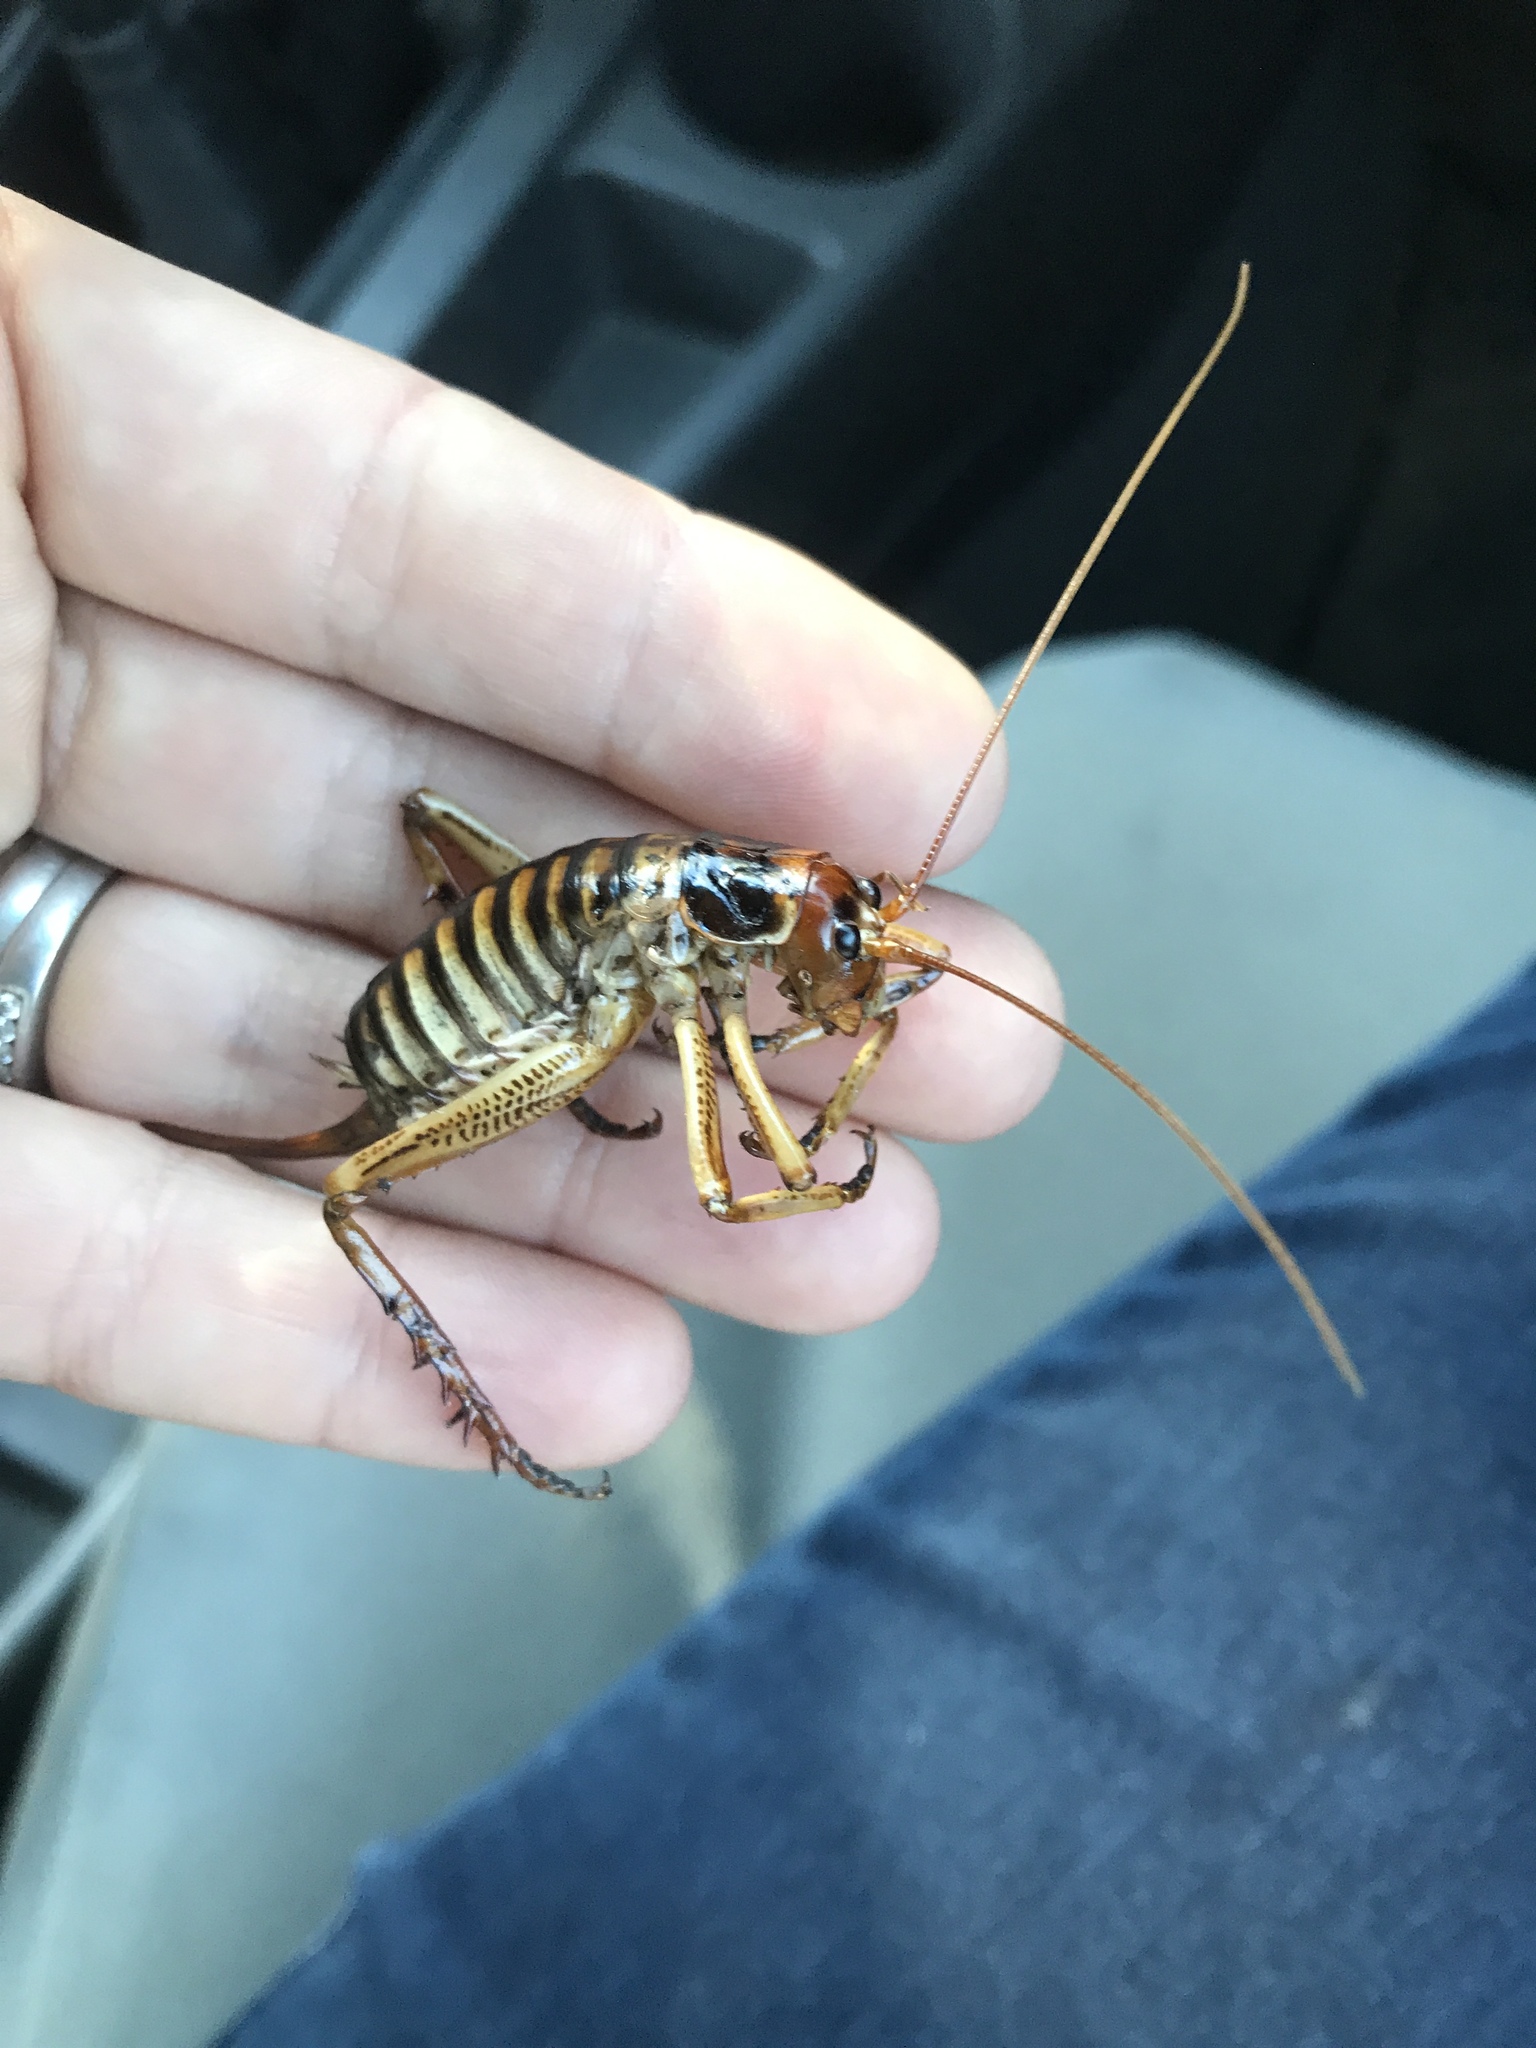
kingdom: Animalia
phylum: Arthropoda
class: Insecta
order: Orthoptera
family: Anostostomatidae
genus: Hemideina
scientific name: Hemideina crassidens
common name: Wellington tree weta
